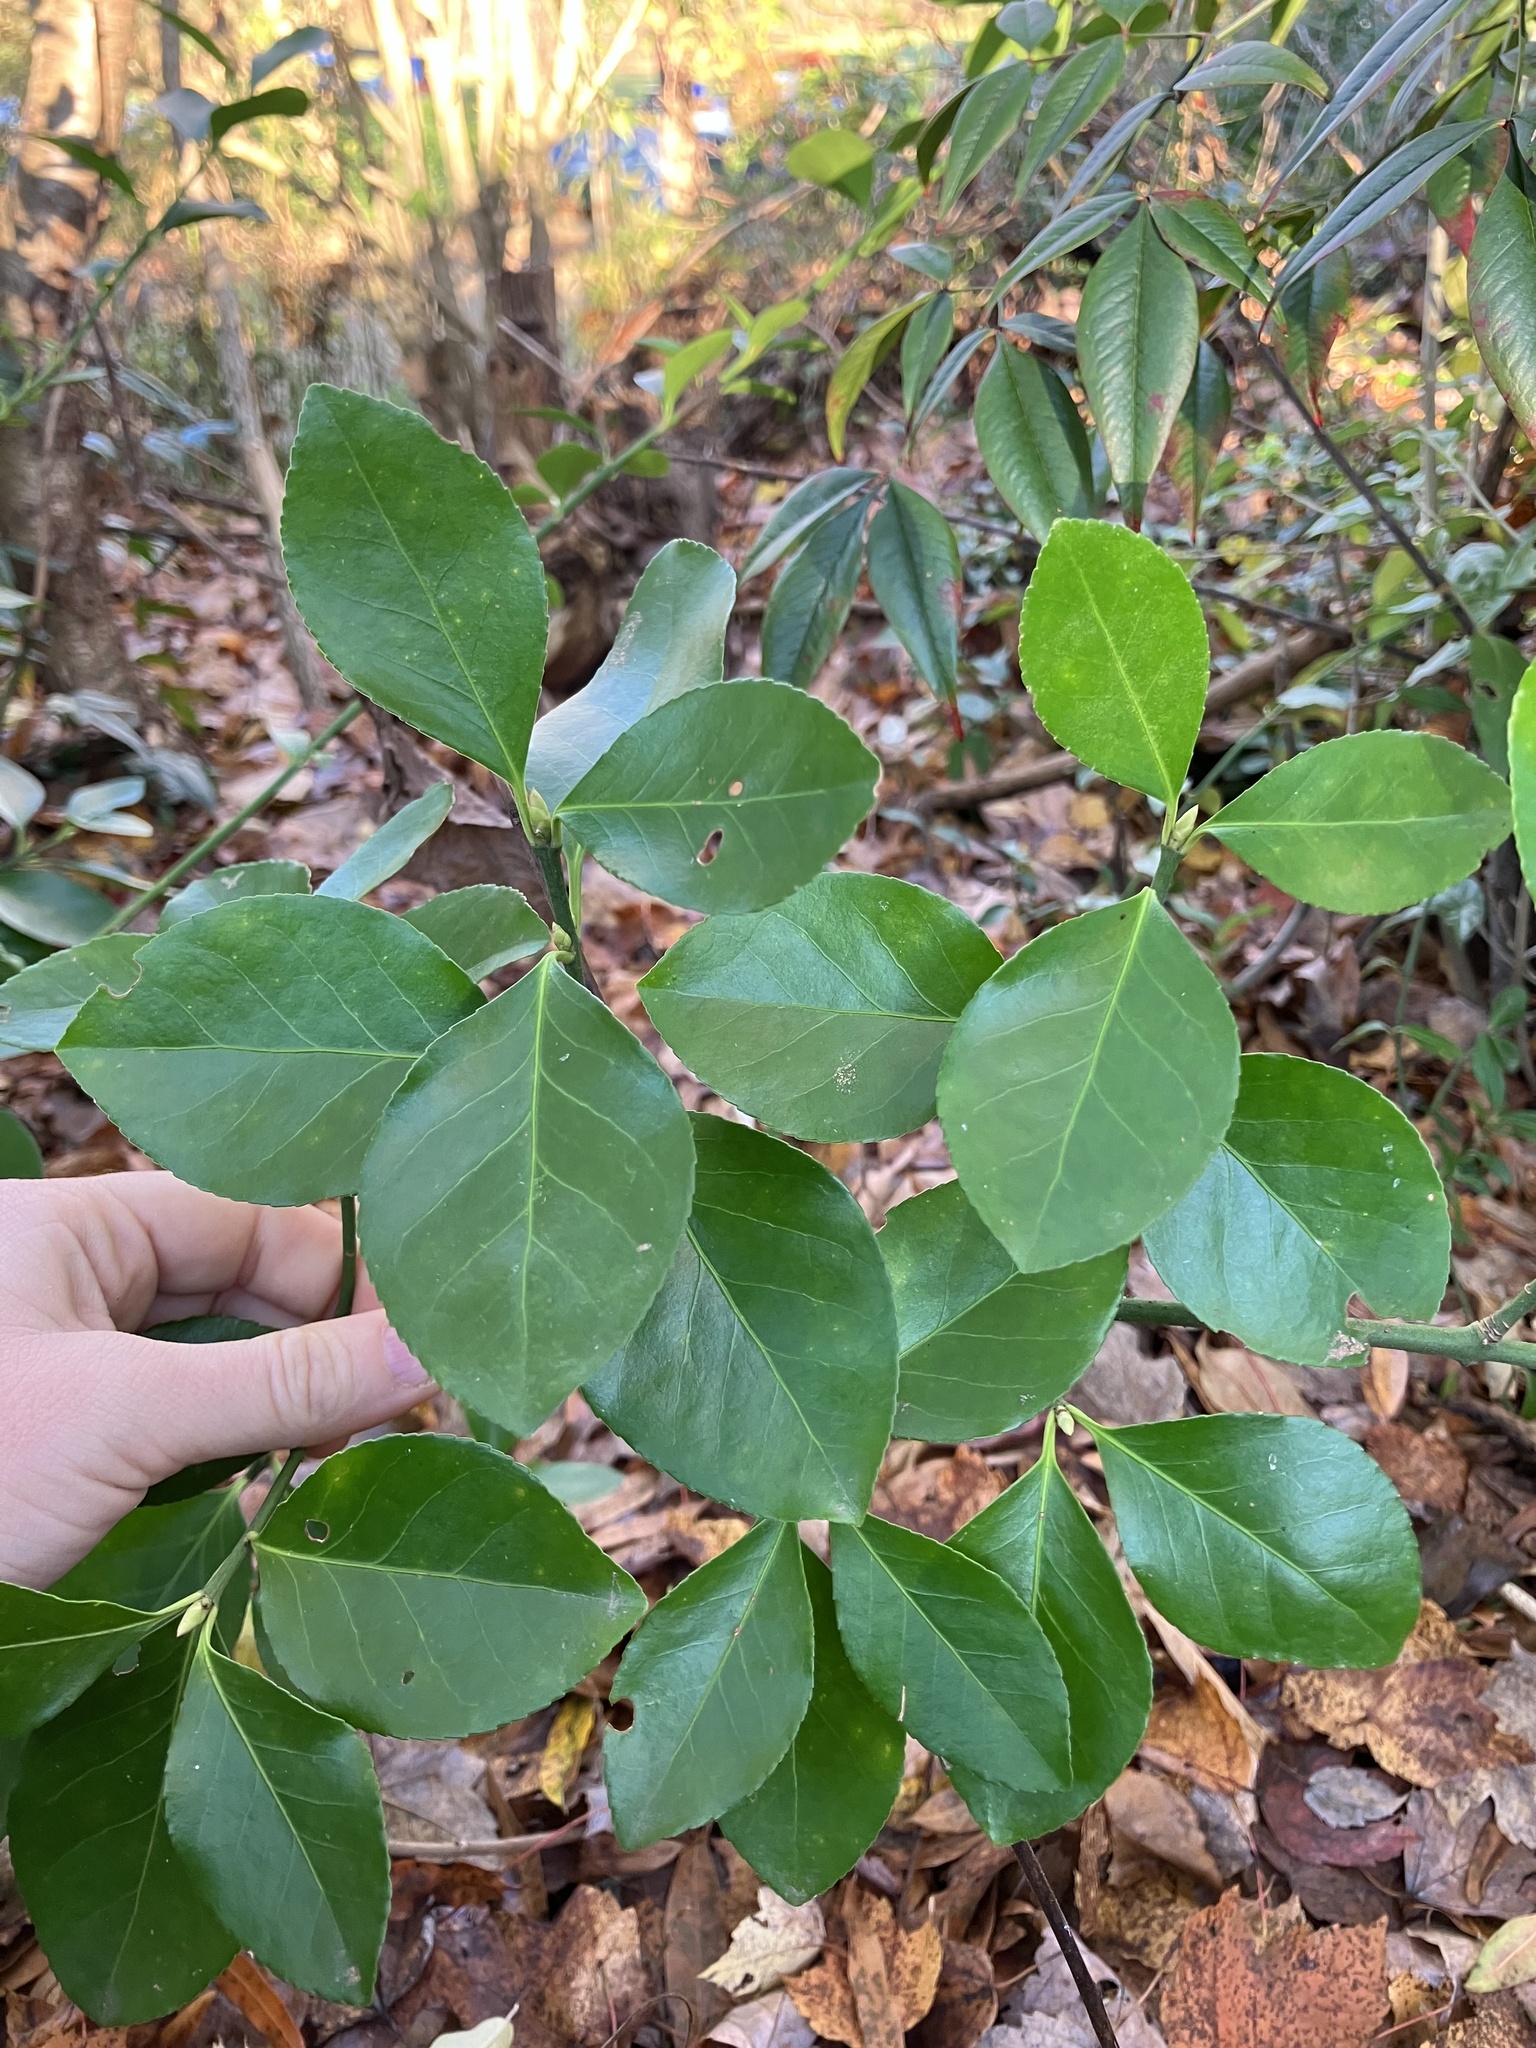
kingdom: Plantae
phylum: Tracheophyta
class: Magnoliopsida
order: Celastrales
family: Celastraceae
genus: Euonymus
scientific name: Euonymus japonicus
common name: Japanese spindletree
